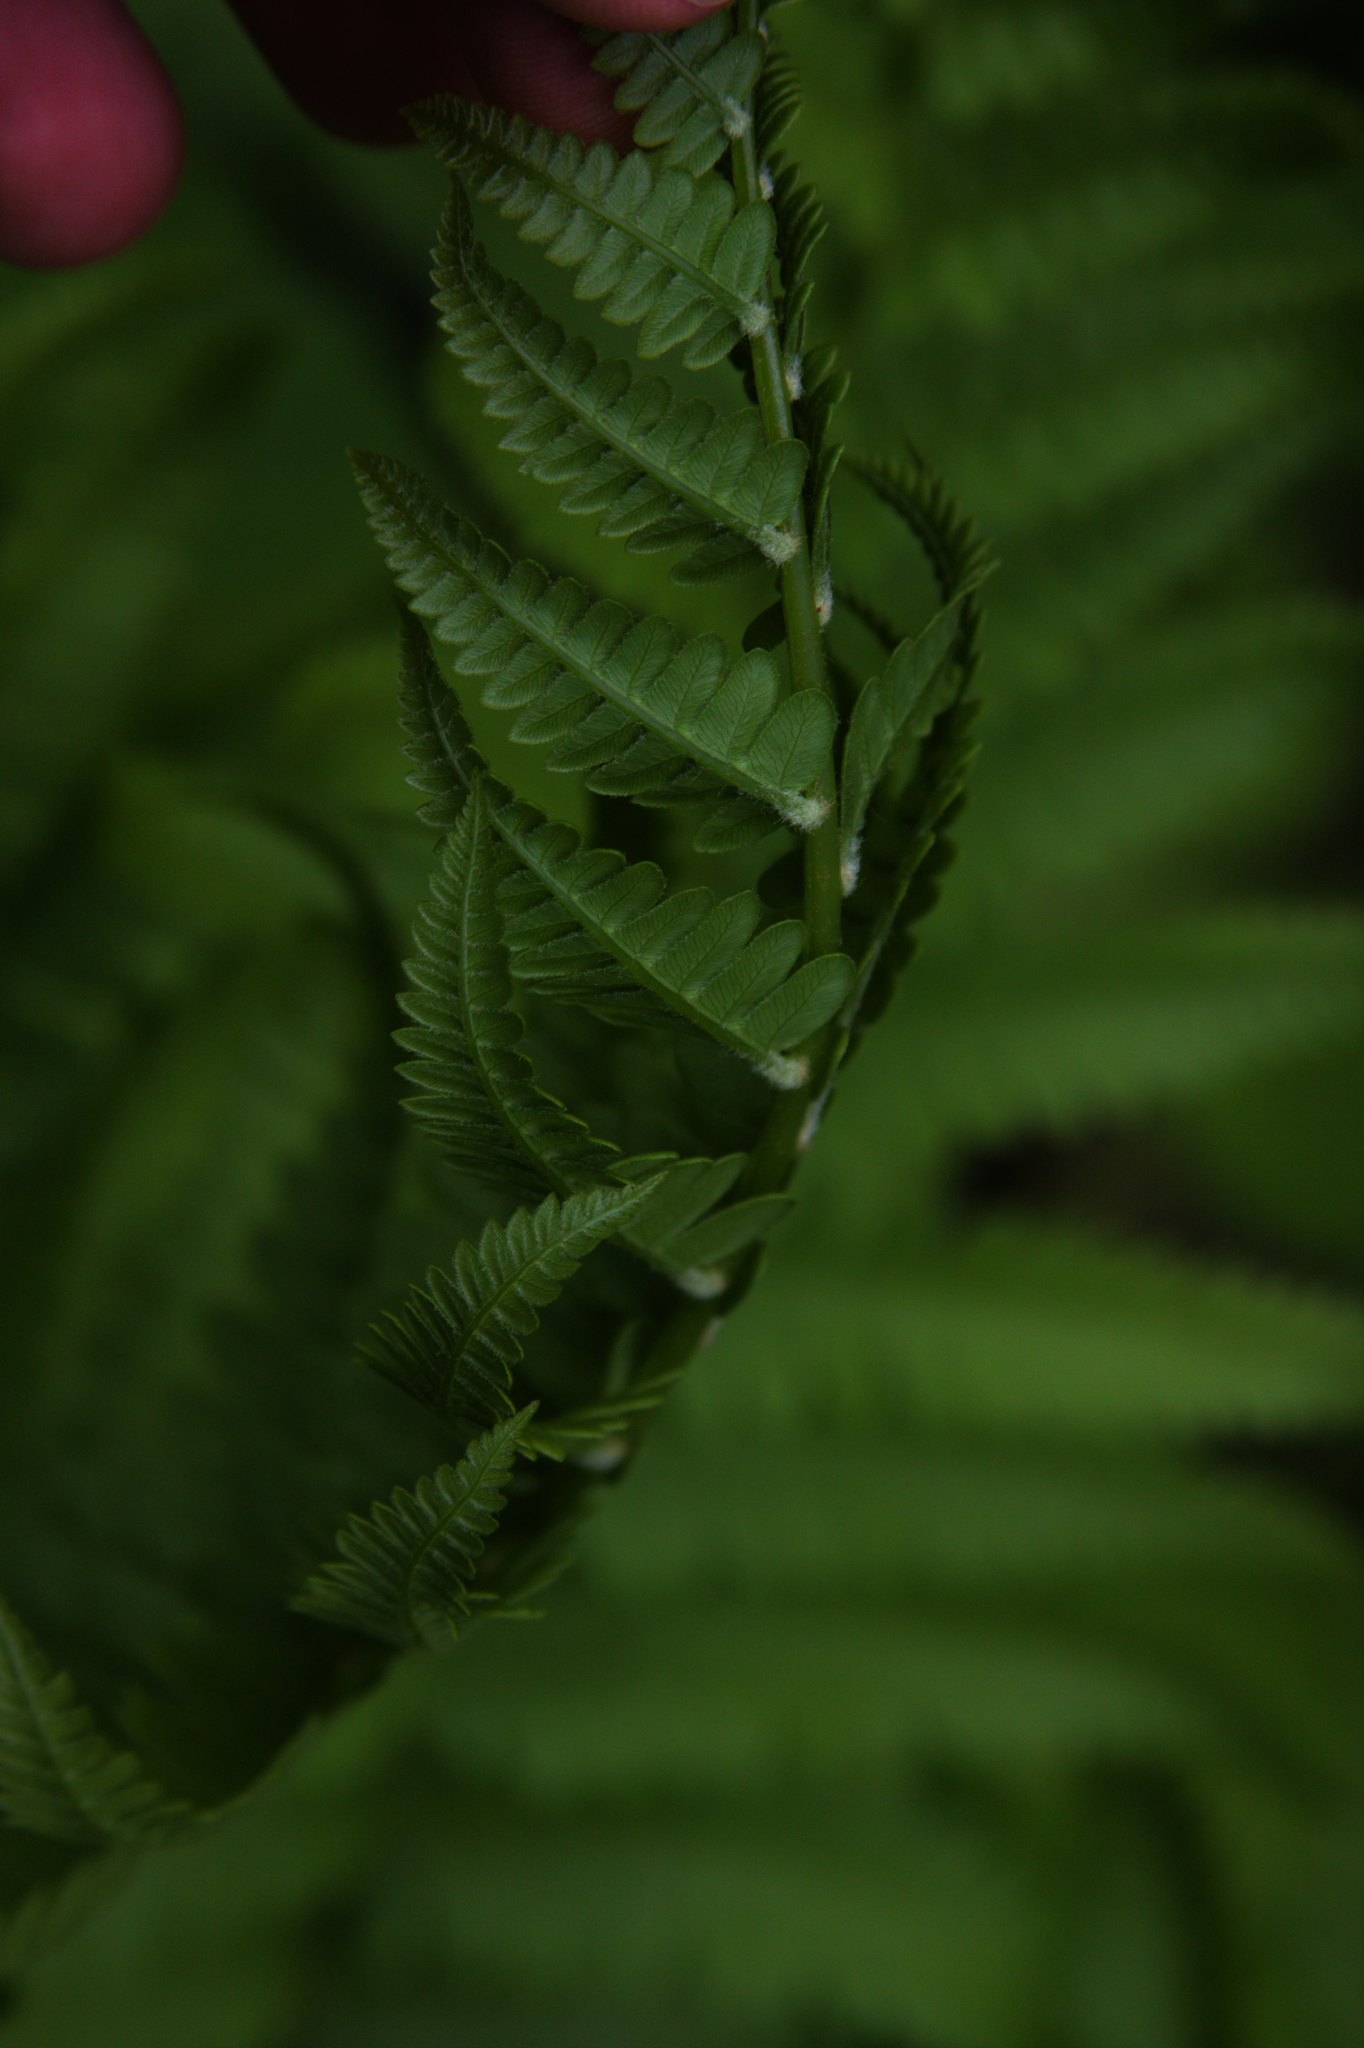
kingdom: Plantae
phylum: Tracheophyta
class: Polypodiopsida
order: Osmundales
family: Osmundaceae
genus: Osmundastrum
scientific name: Osmundastrum cinnamomeum
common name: Cinnamon fern
